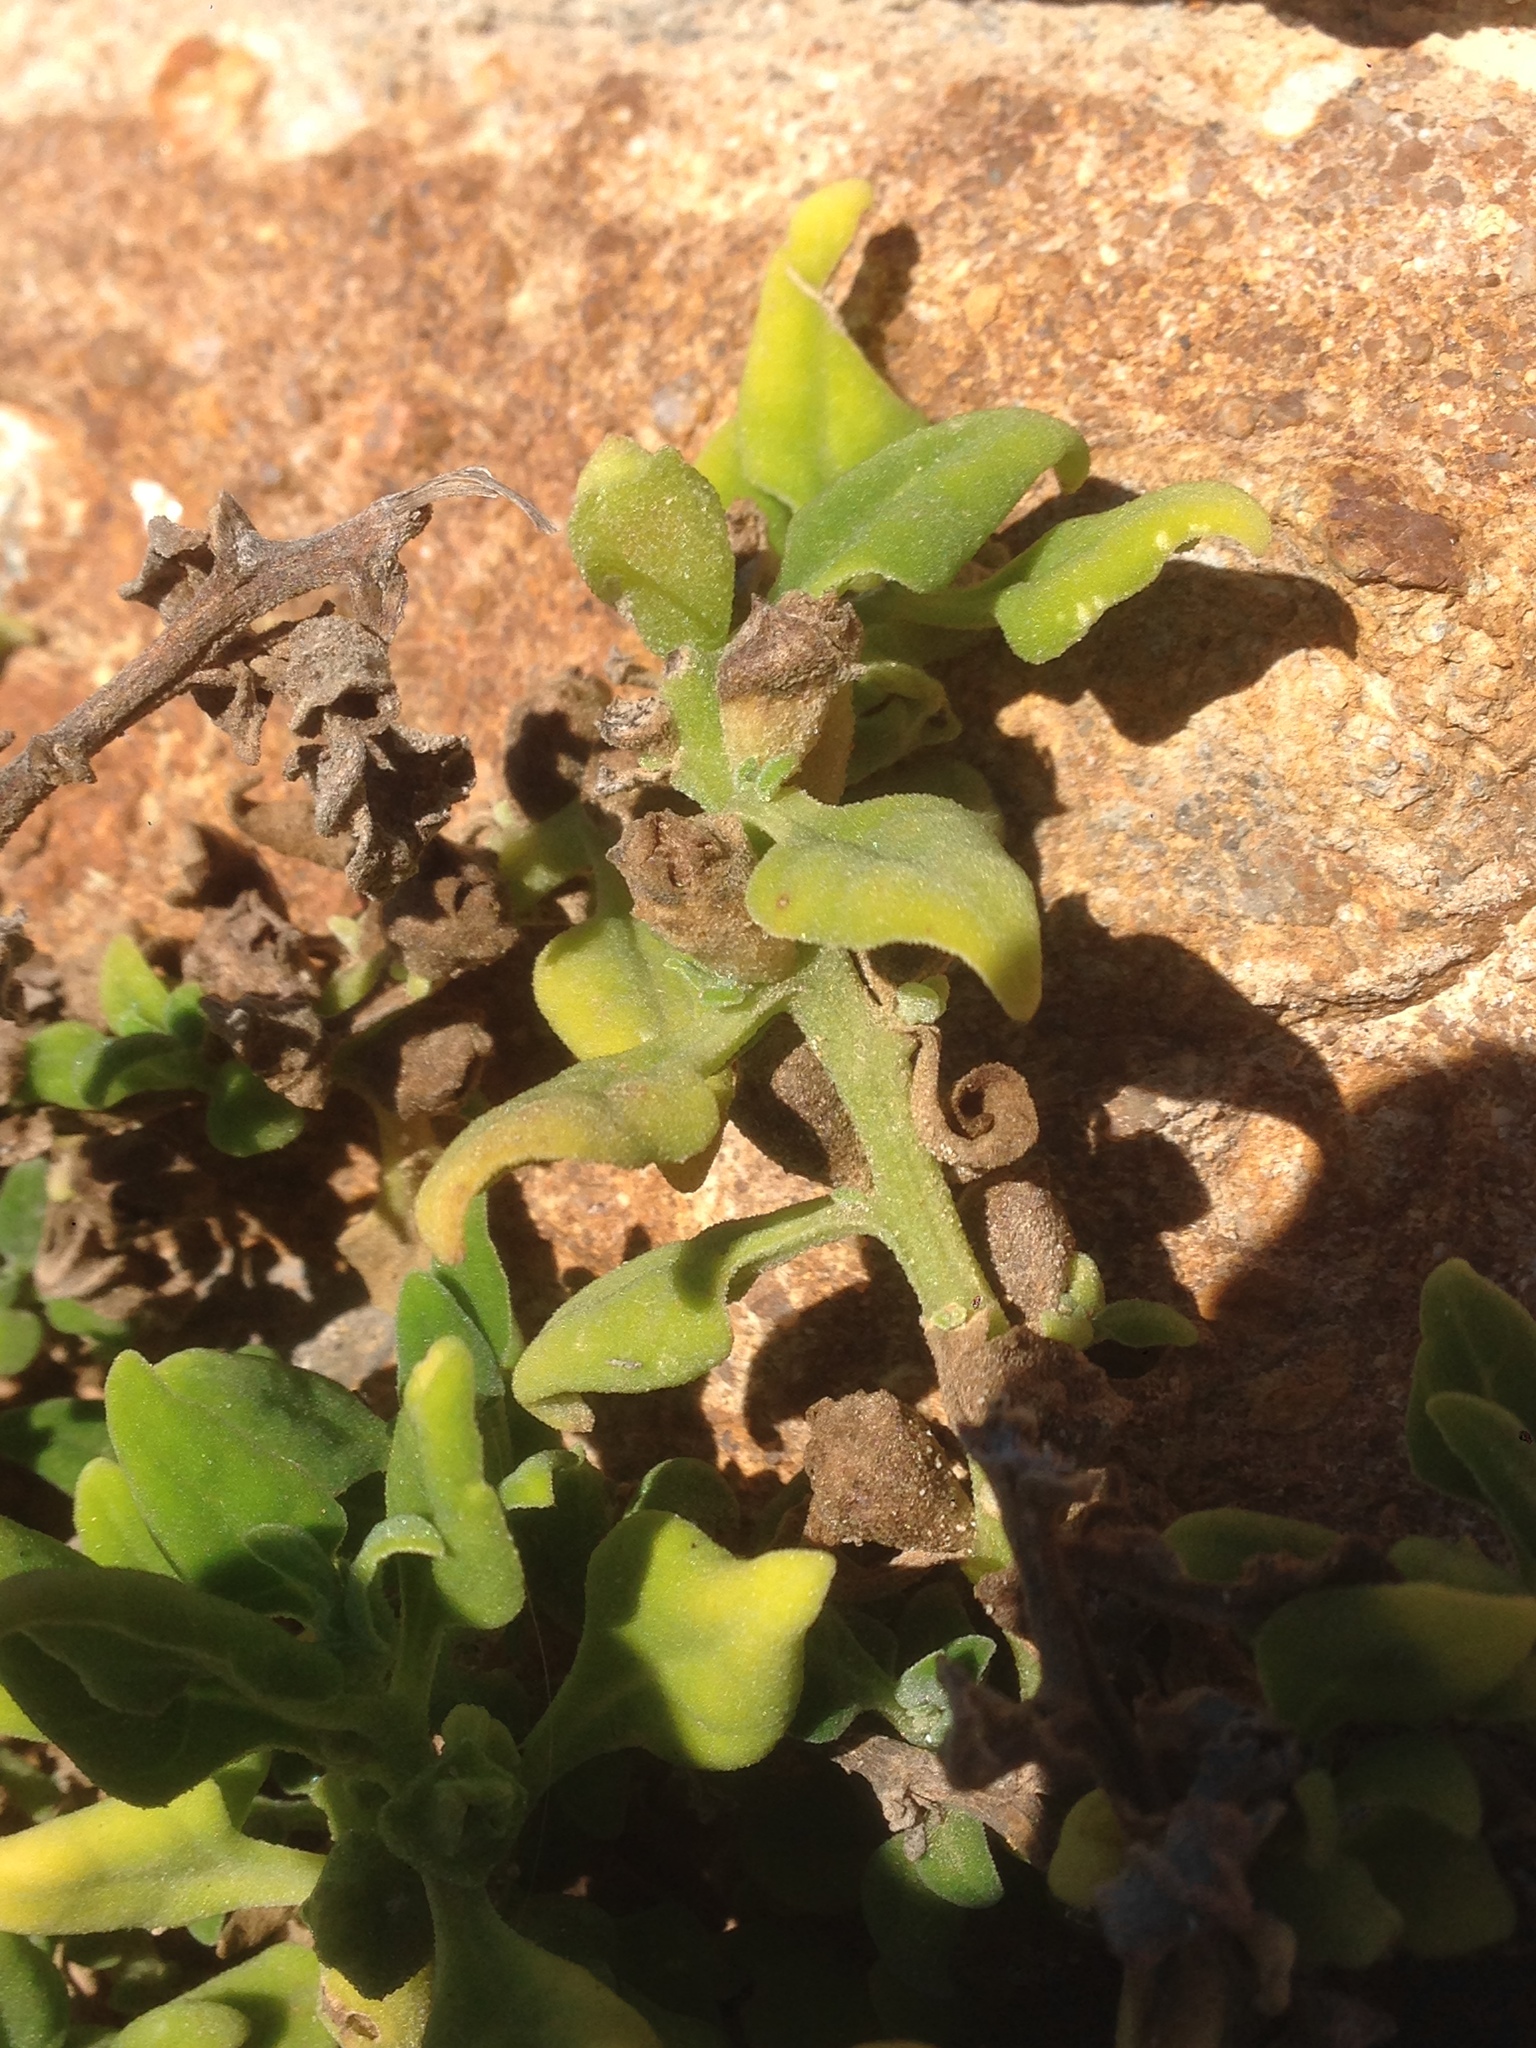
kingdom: Plantae
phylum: Tracheophyta
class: Magnoliopsida
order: Caryophyllales
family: Aizoaceae
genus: Tetragonia
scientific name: Tetragonia tetragonoides
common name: New zealand-spinach
